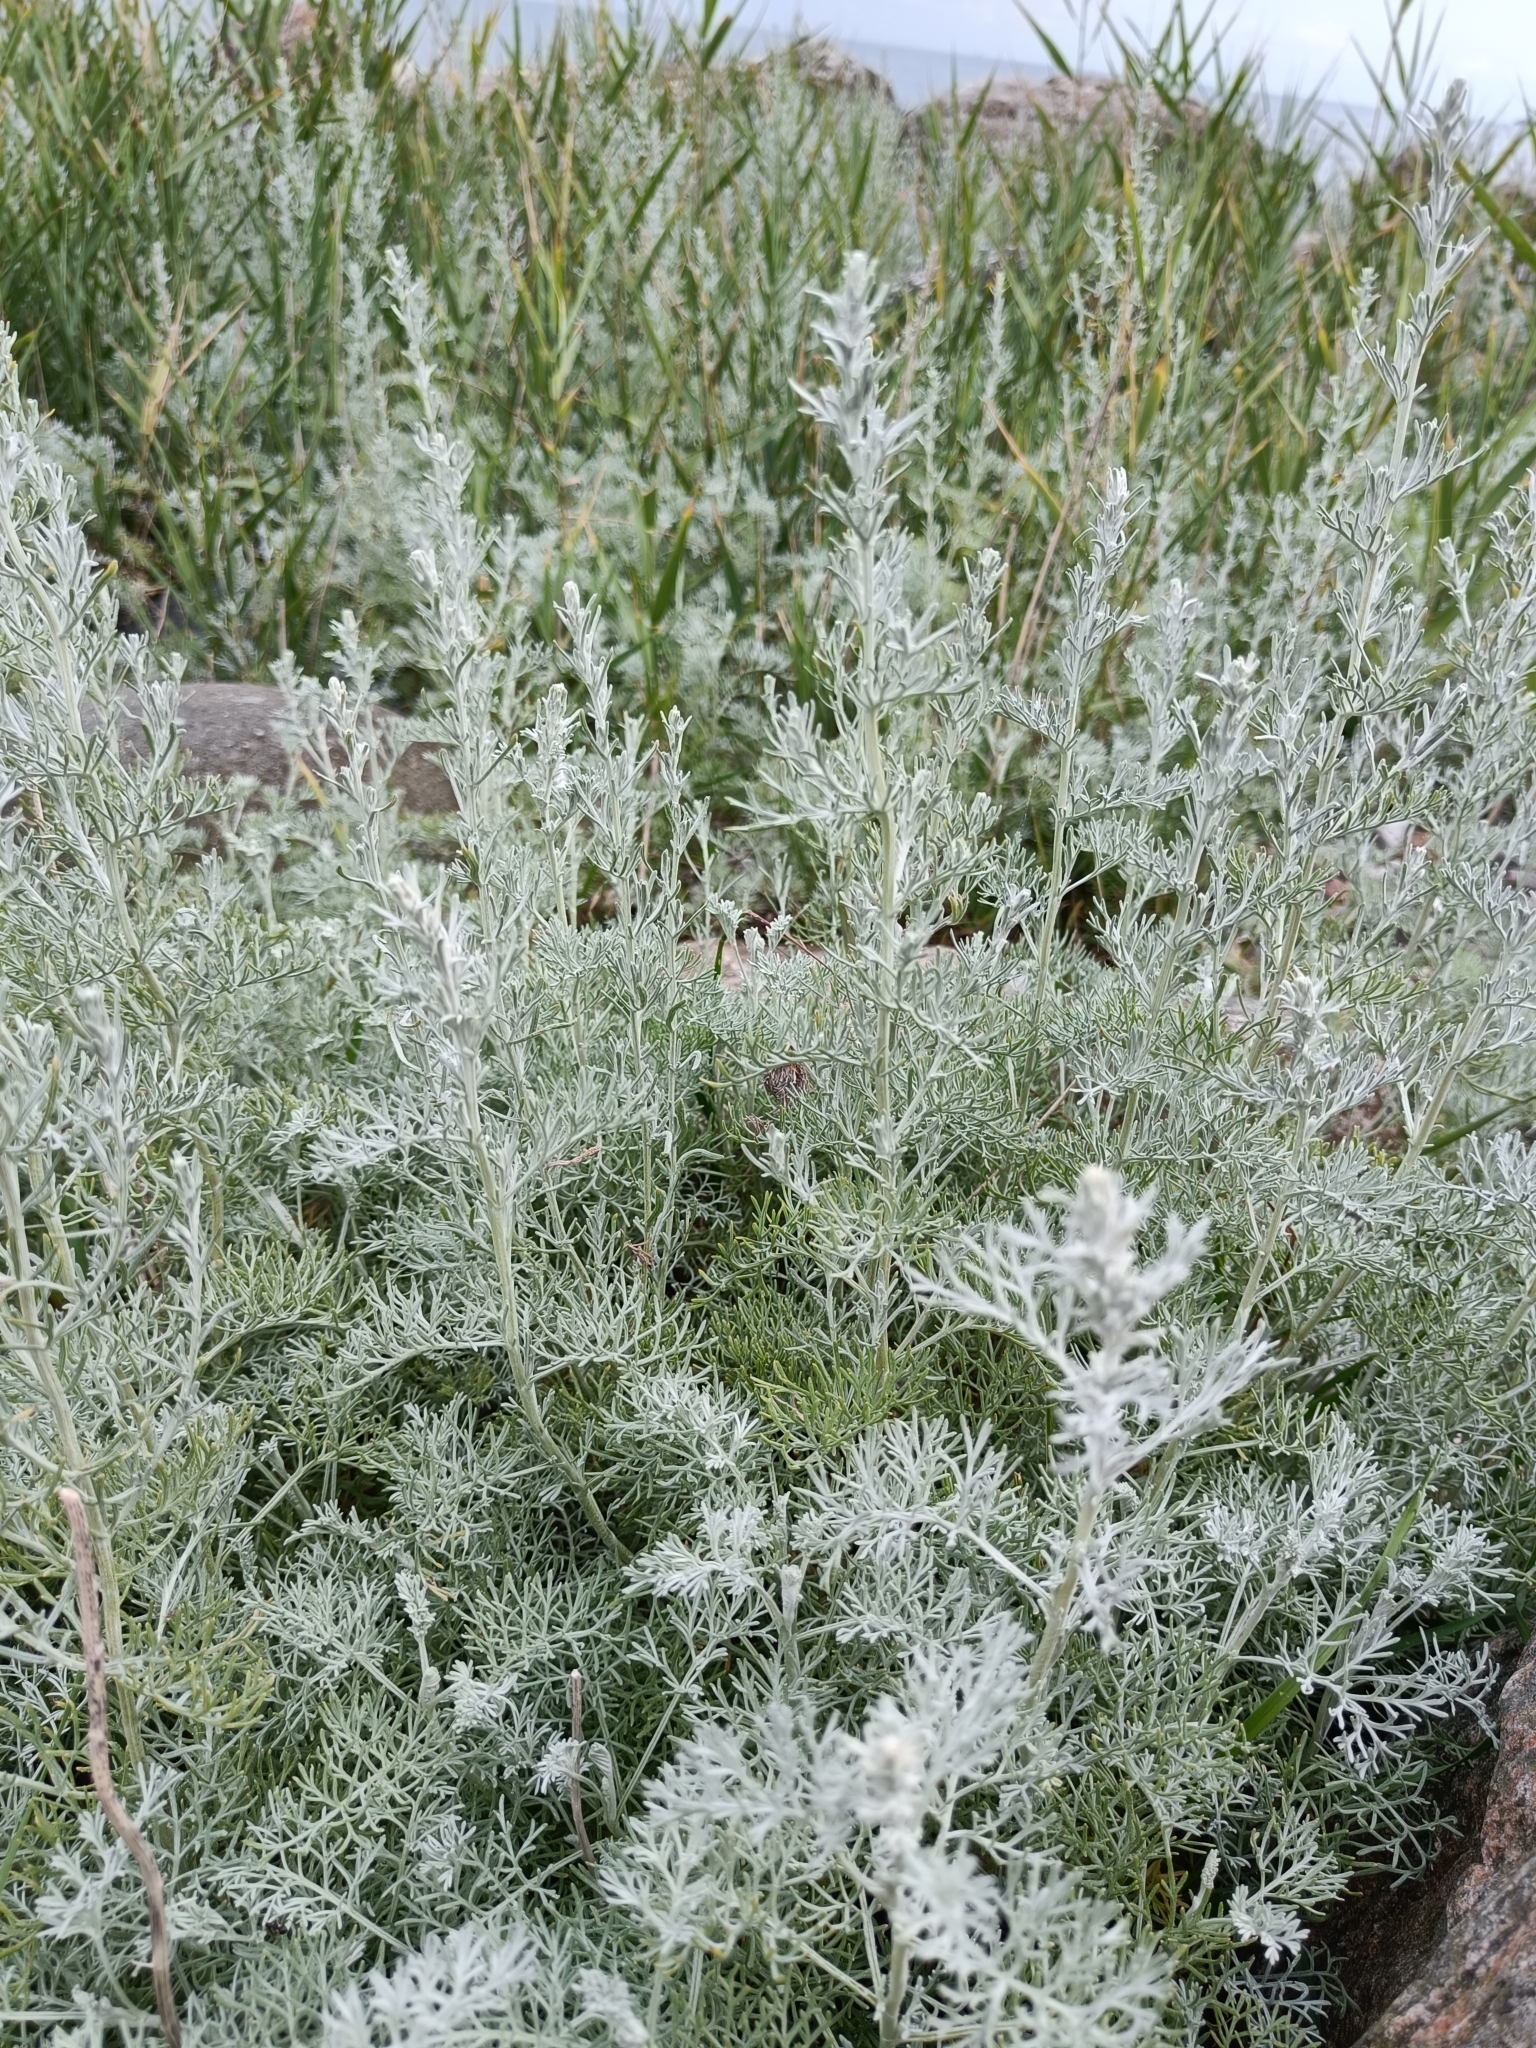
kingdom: Plantae
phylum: Tracheophyta
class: Magnoliopsida
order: Asterales
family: Asteraceae
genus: Artemisia
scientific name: Artemisia maritima
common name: Wormseed
